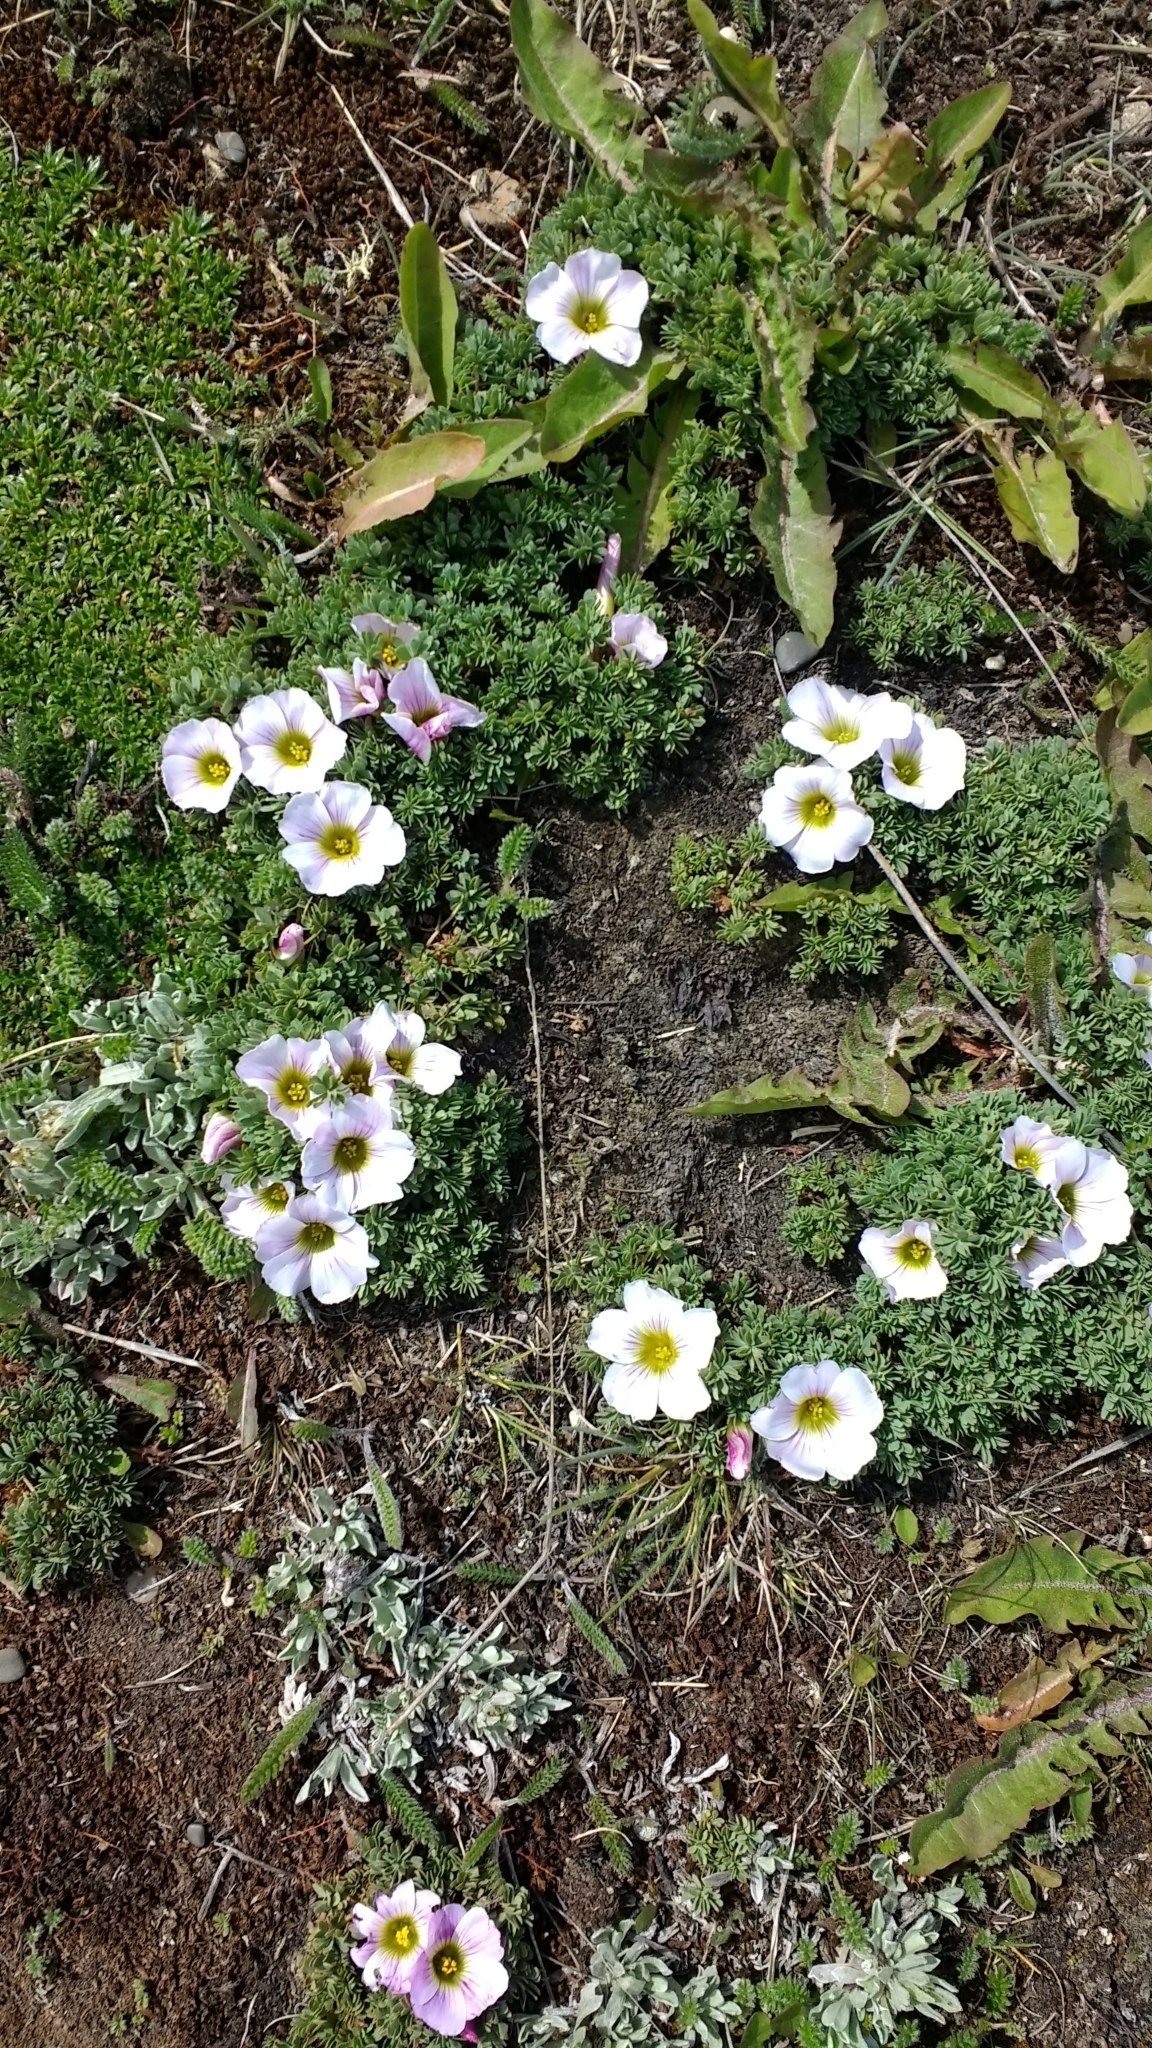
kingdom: Plantae
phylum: Tracheophyta
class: Magnoliopsida
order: Oxalidales
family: Oxalidaceae
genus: Oxalis
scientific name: Oxalis enneaphylla
